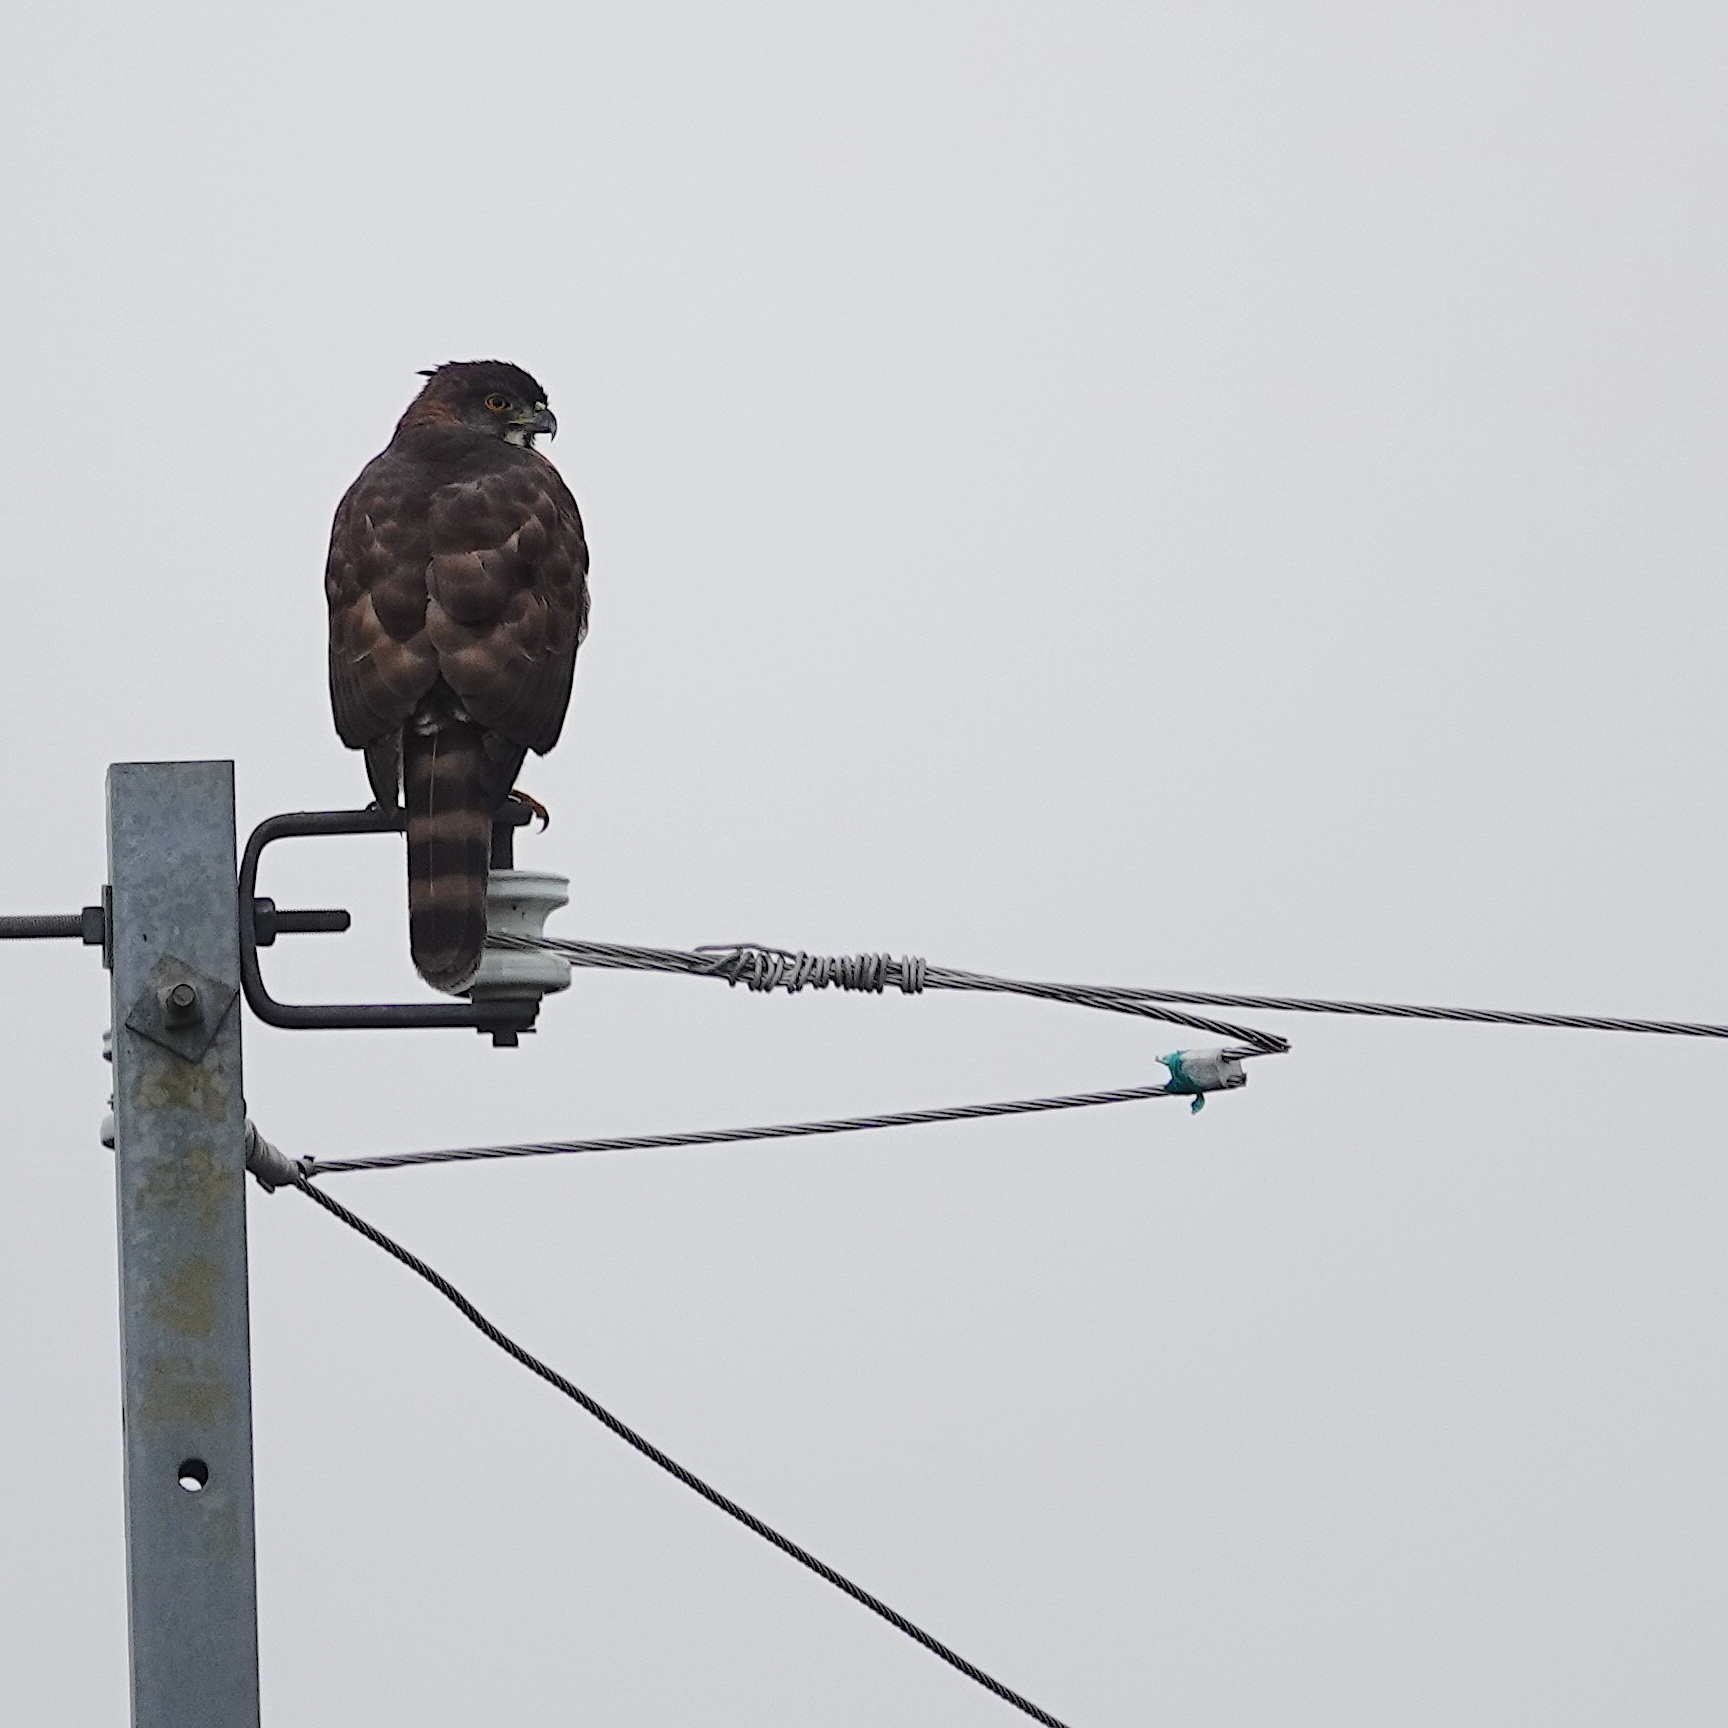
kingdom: Animalia
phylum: Chordata
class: Aves
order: Accipitriformes
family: Accipitridae
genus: Accipiter
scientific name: Accipiter trivirgatus
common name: Crested goshawk
